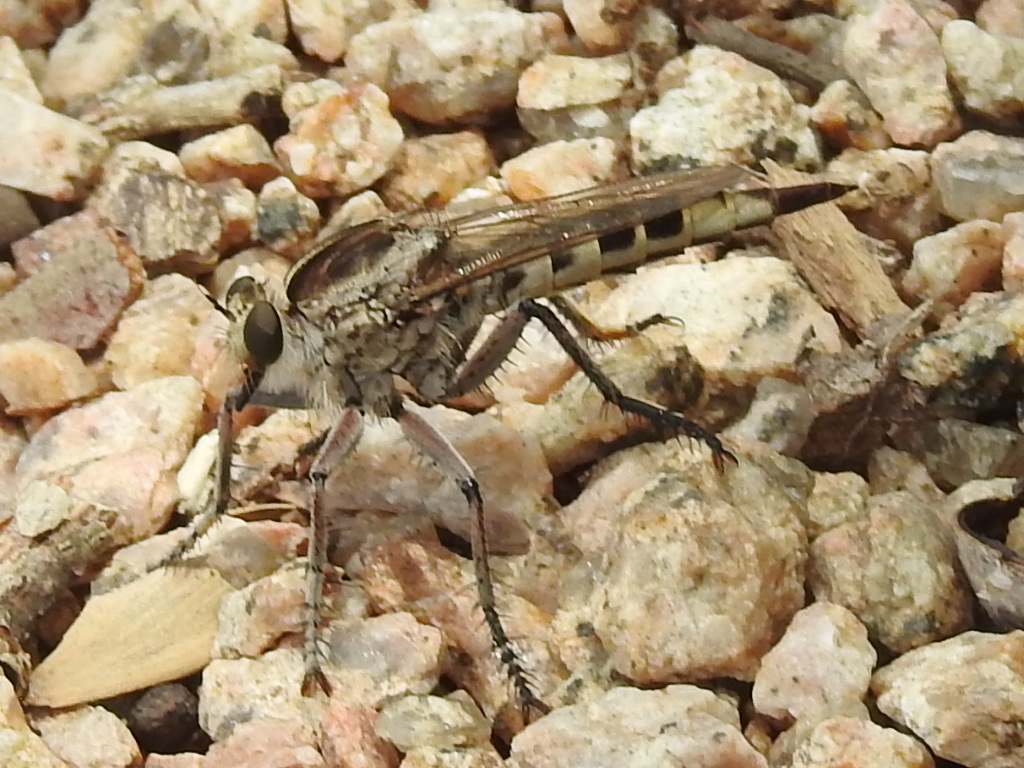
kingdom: Animalia
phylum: Arthropoda
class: Insecta
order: Diptera
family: Asilidae
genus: Triorla
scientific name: Triorla interrupta
